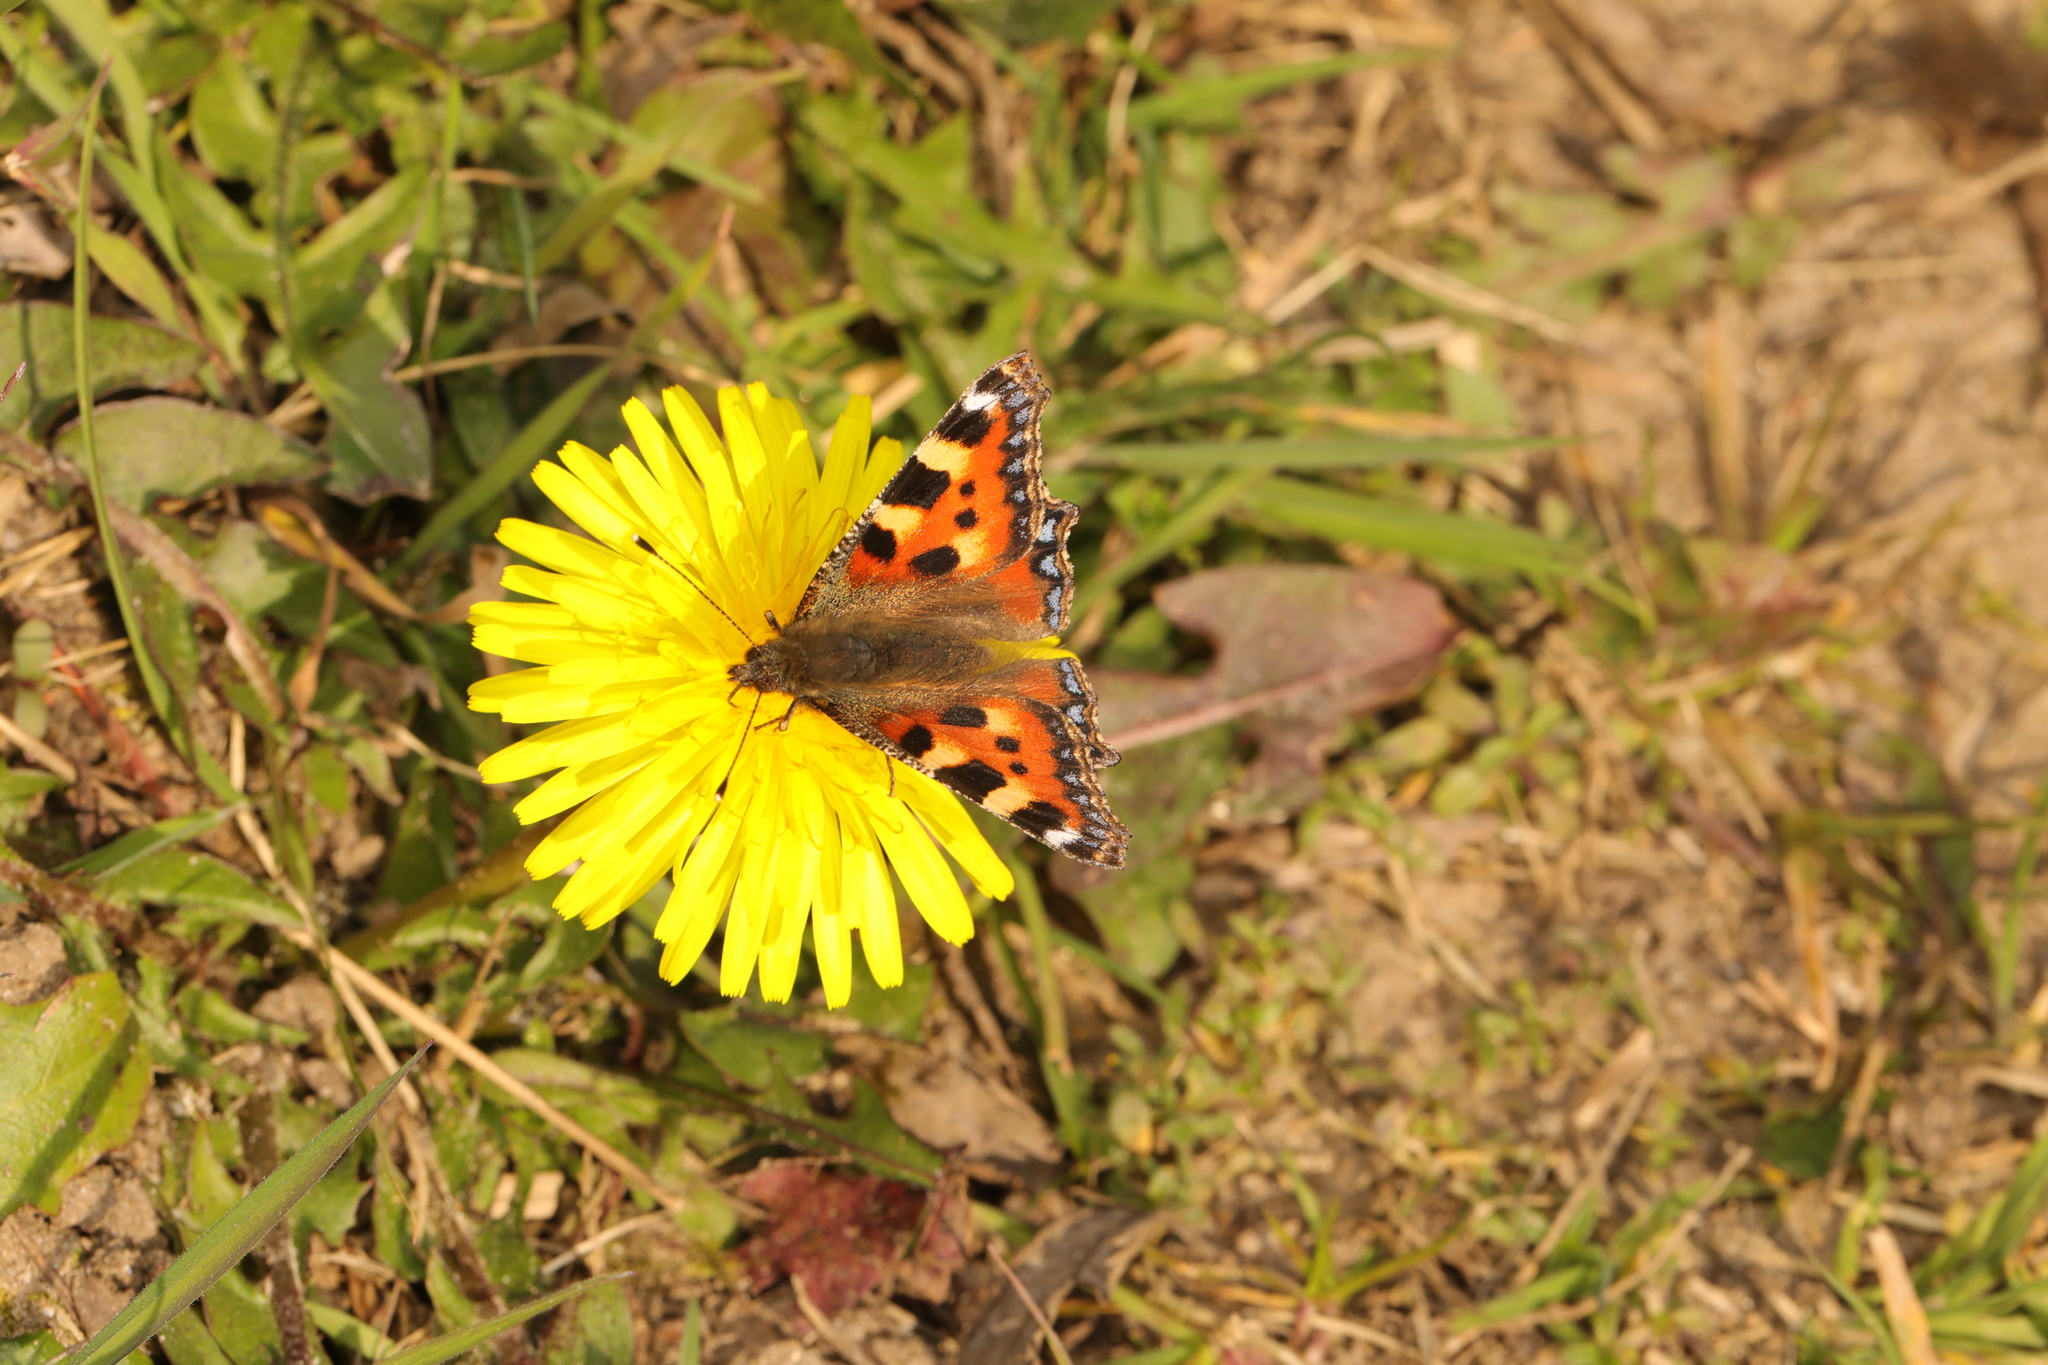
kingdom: Animalia
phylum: Arthropoda
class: Insecta
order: Lepidoptera
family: Nymphalidae
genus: Aglais
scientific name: Aglais urticae
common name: Small tortoiseshell
